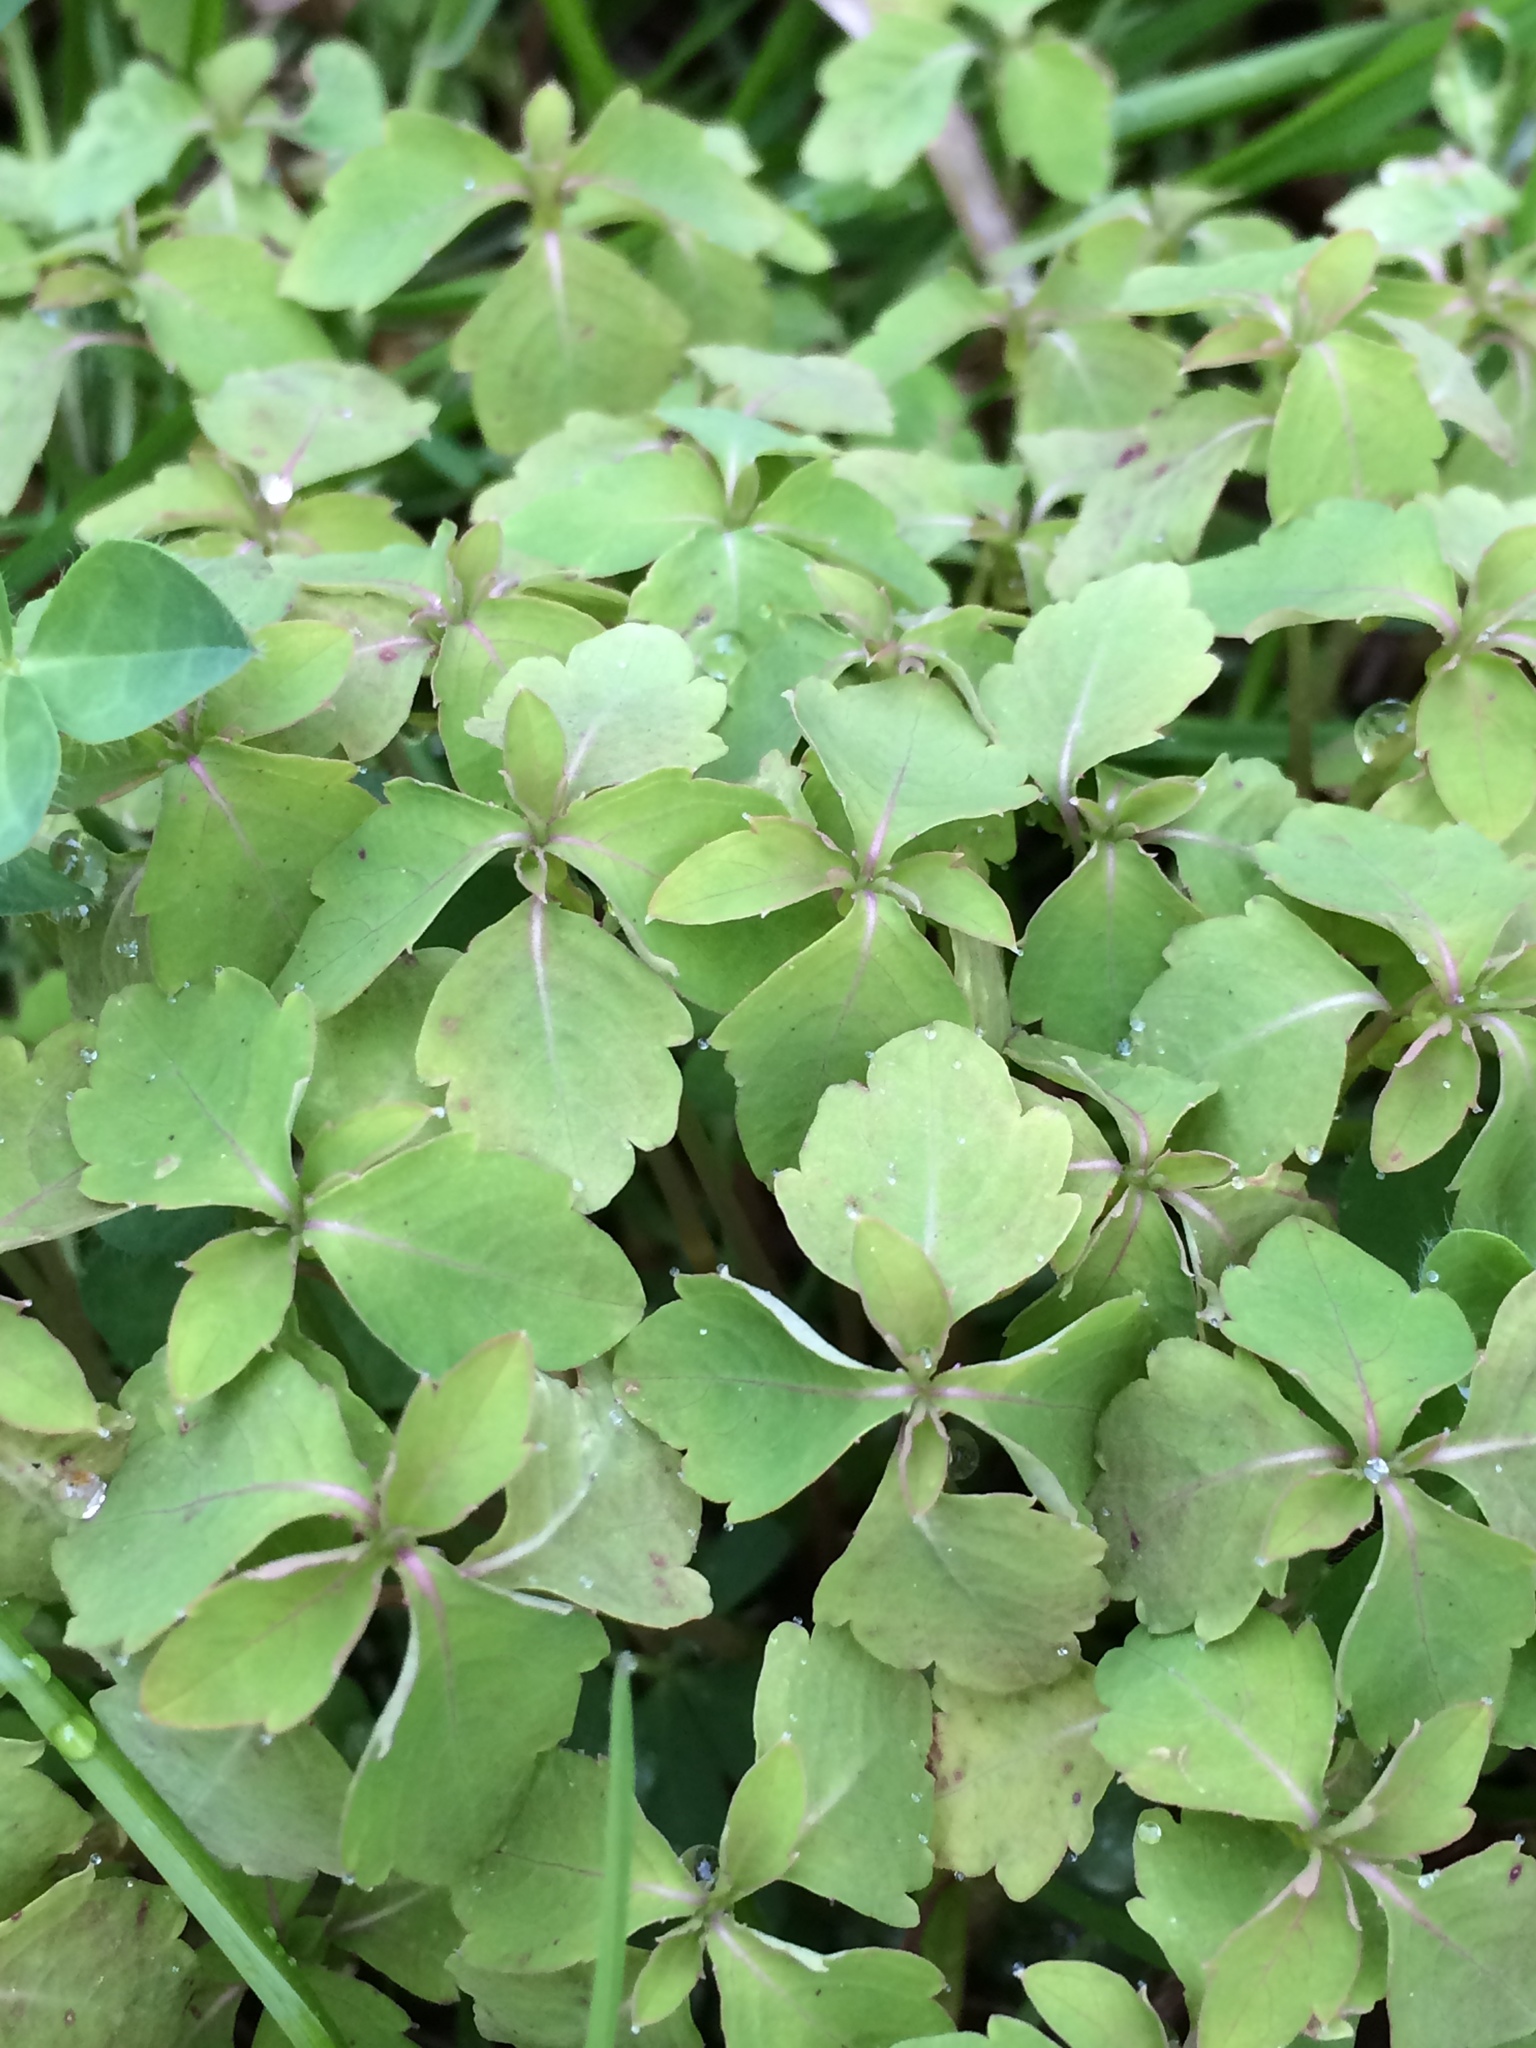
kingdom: Plantae
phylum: Tracheophyta
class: Magnoliopsida
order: Ericales
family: Balsaminaceae
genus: Impatiens
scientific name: Impatiens capensis
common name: Orange balsam
